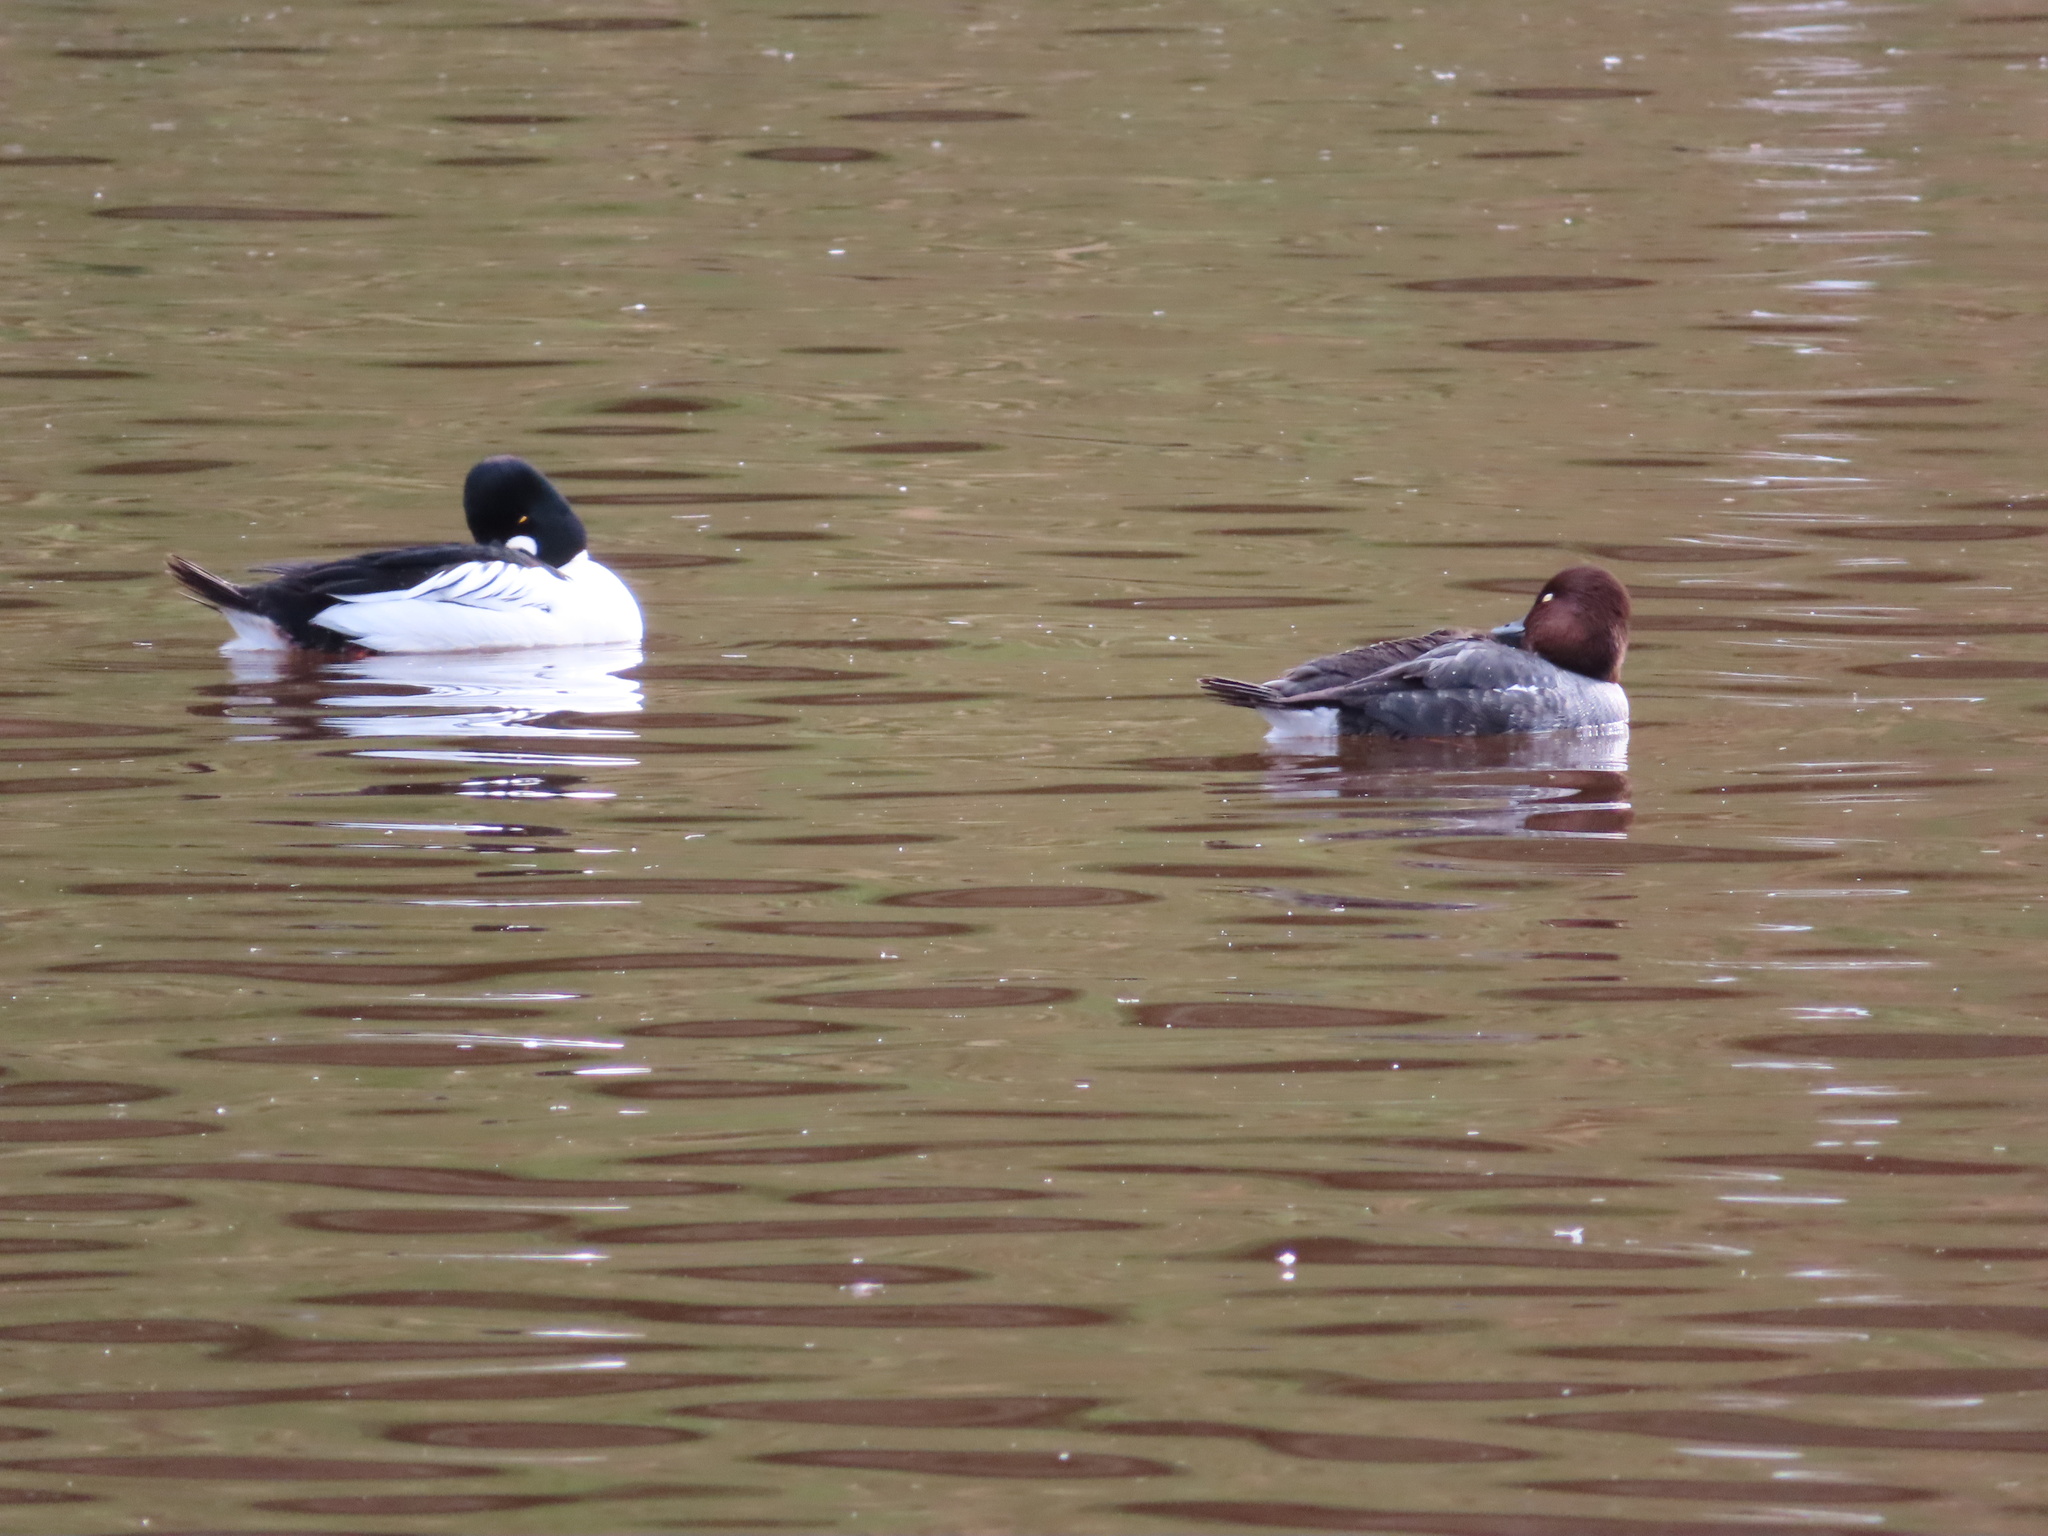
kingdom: Animalia
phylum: Chordata
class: Aves
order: Anseriformes
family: Anatidae
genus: Bucephala
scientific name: Bucephala clangula
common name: Common goldeneye
